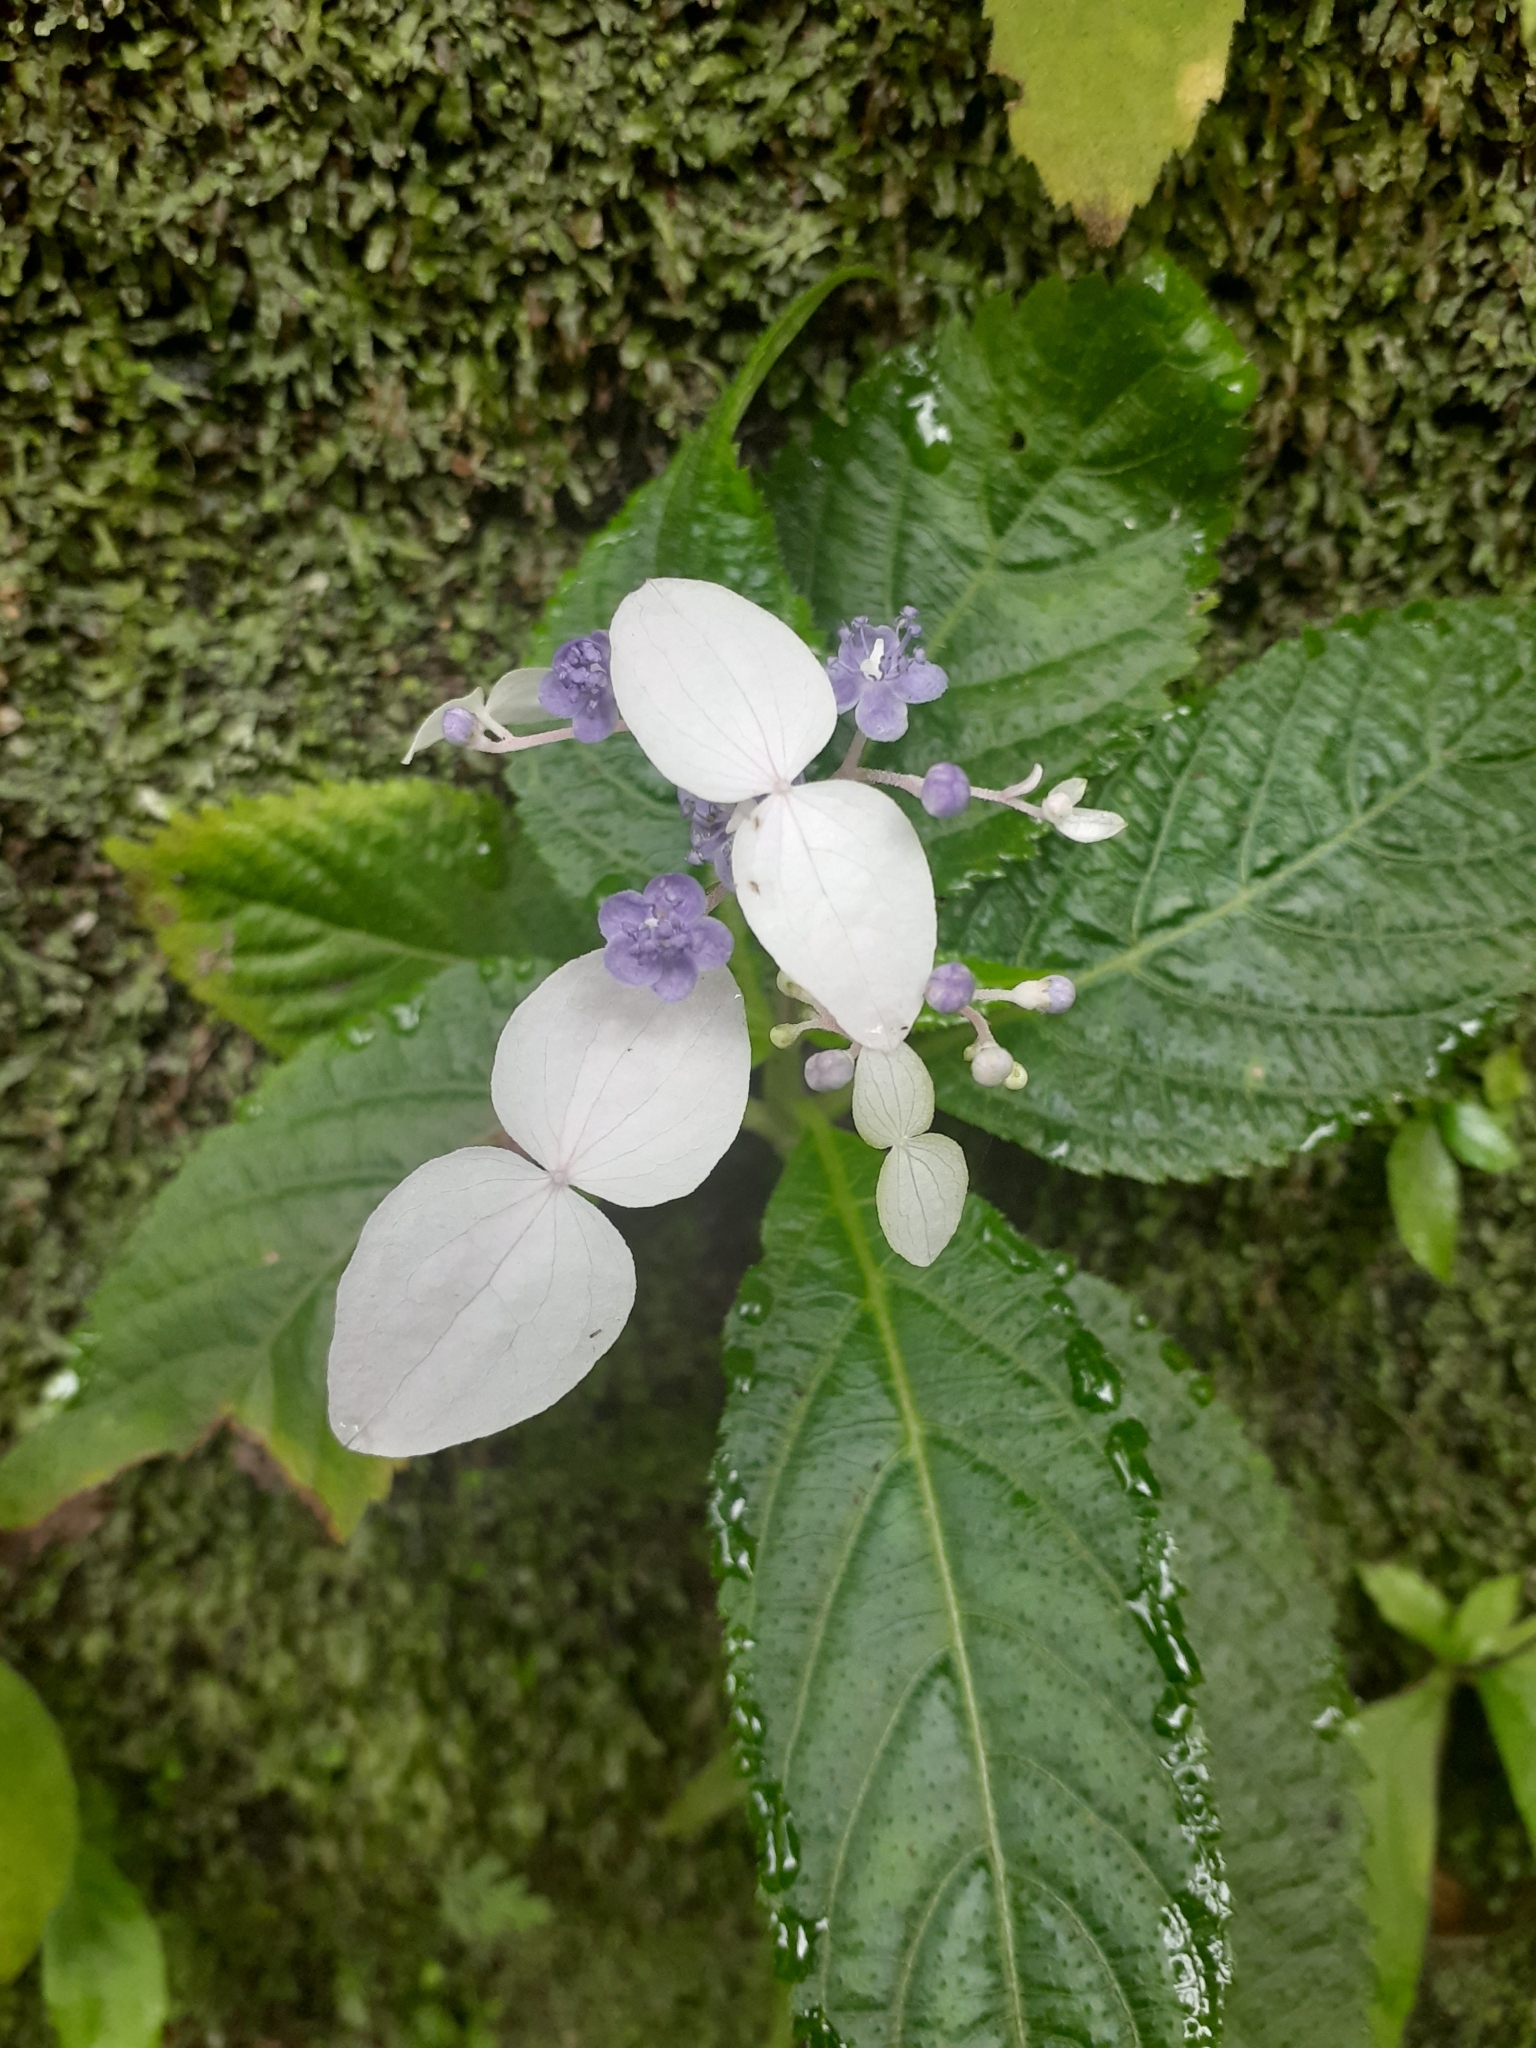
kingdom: Plantae
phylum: Tracheophyta
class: Magnoliopsida
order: Cornales
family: Hydrangeaceae
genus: Hydrangea
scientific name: Hydrangea densifolia
